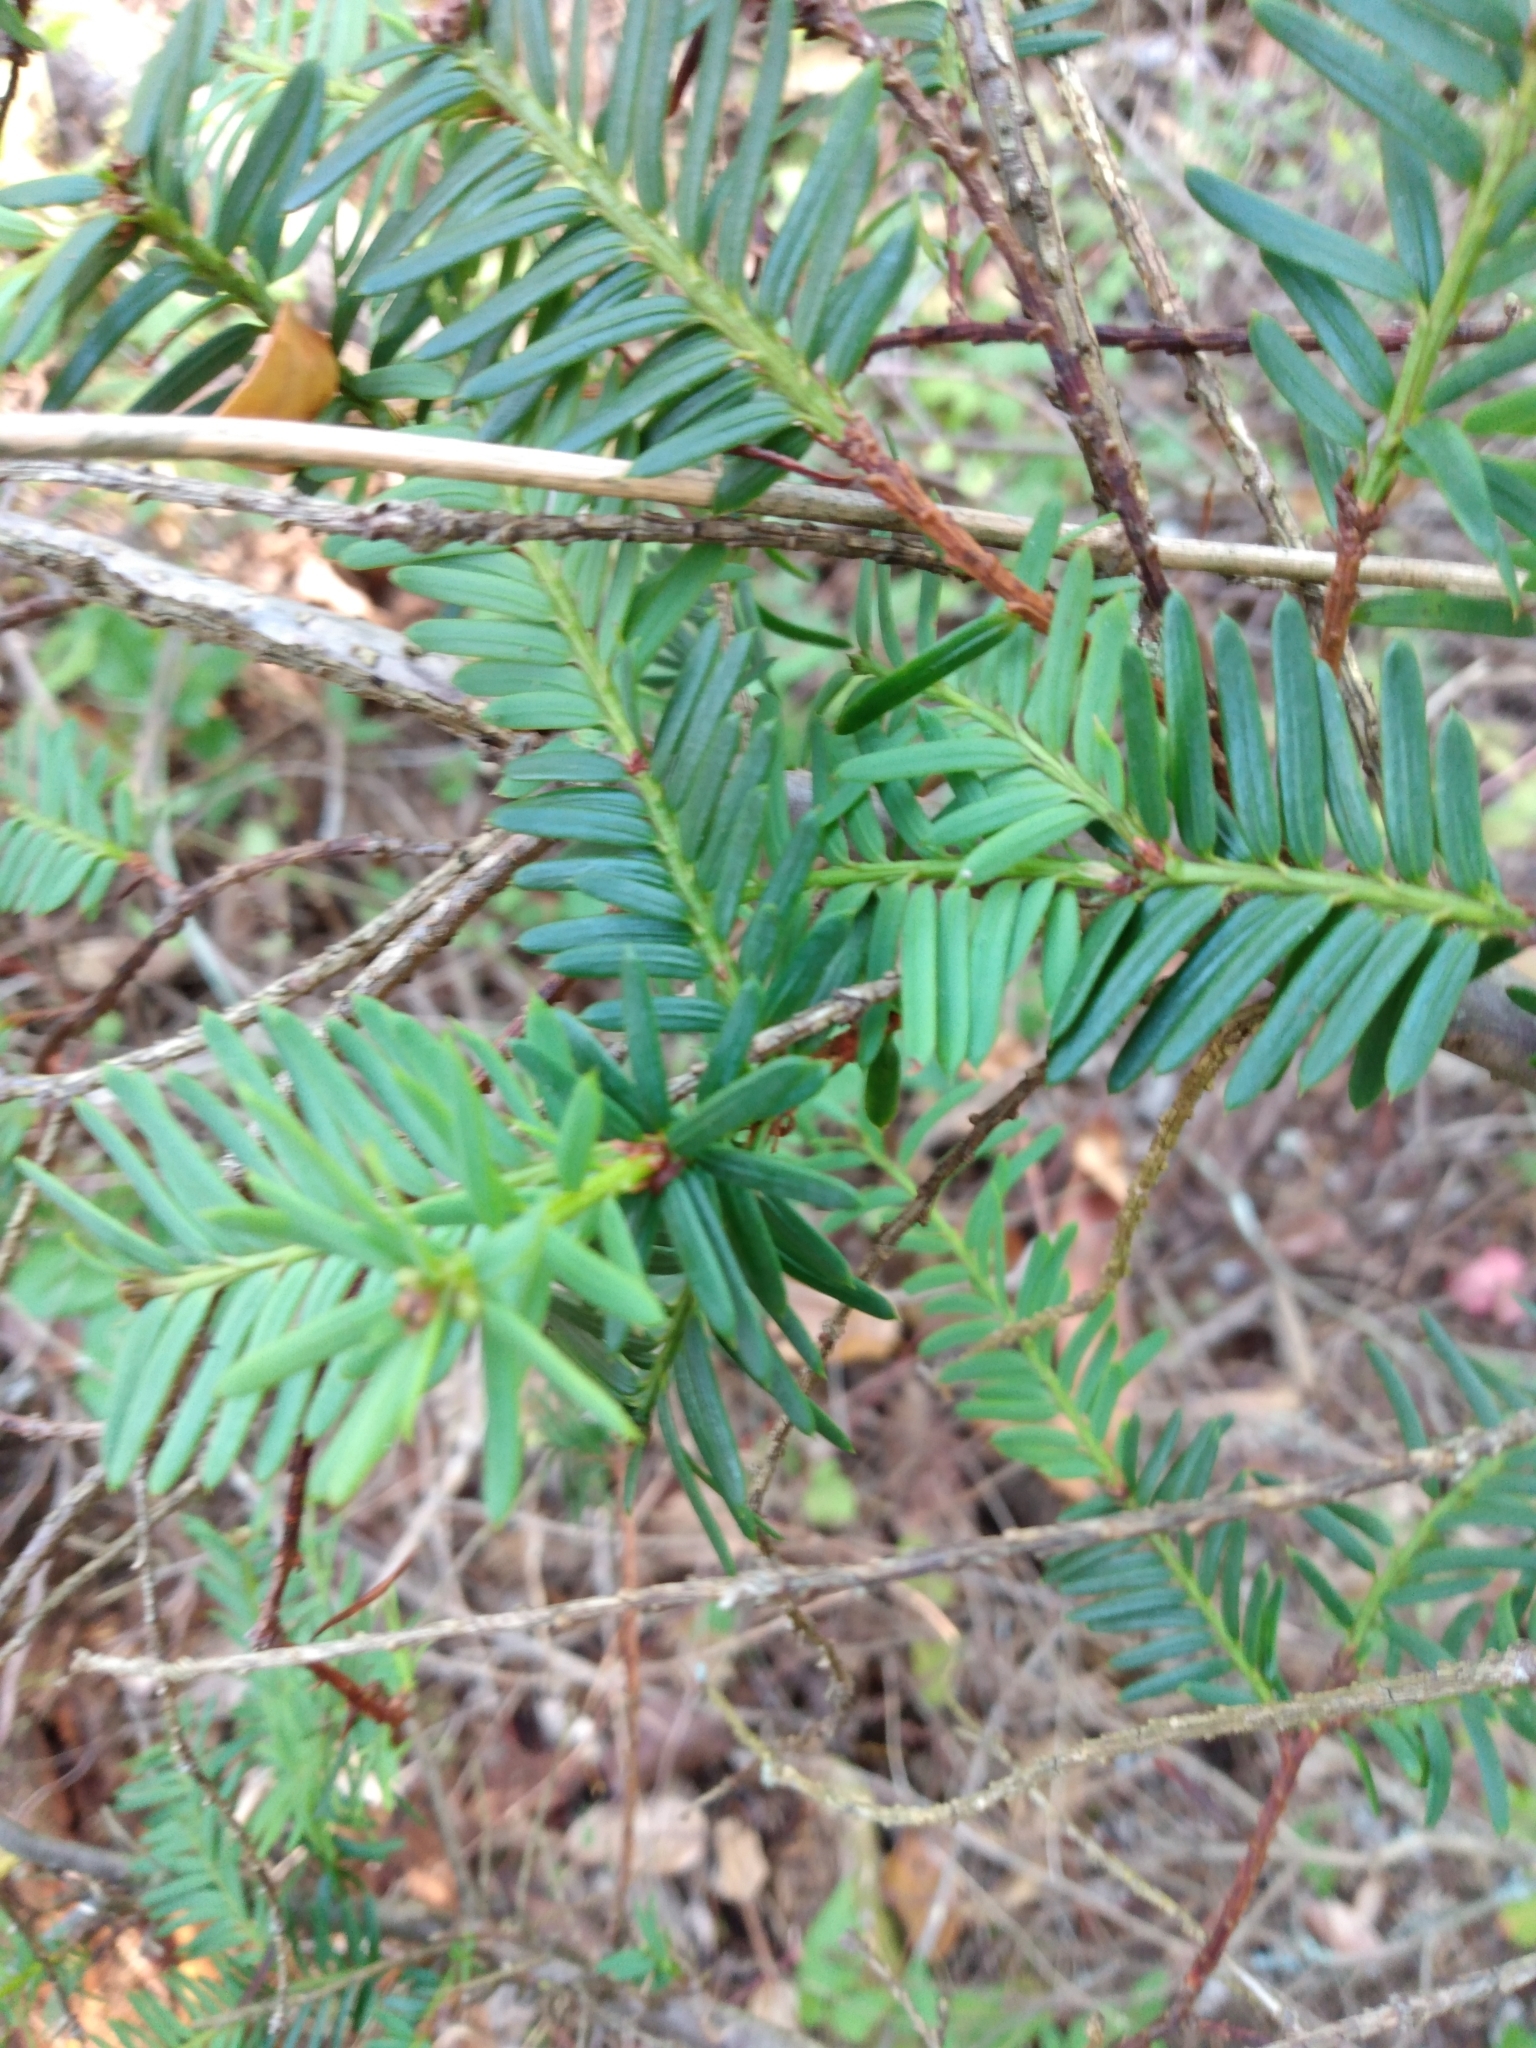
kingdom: Plantae
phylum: Tracheophyta
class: Pinopsida
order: Pinales
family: Taxaceae
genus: Taxus
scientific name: Taxus brevifolia
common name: Pacific yew
